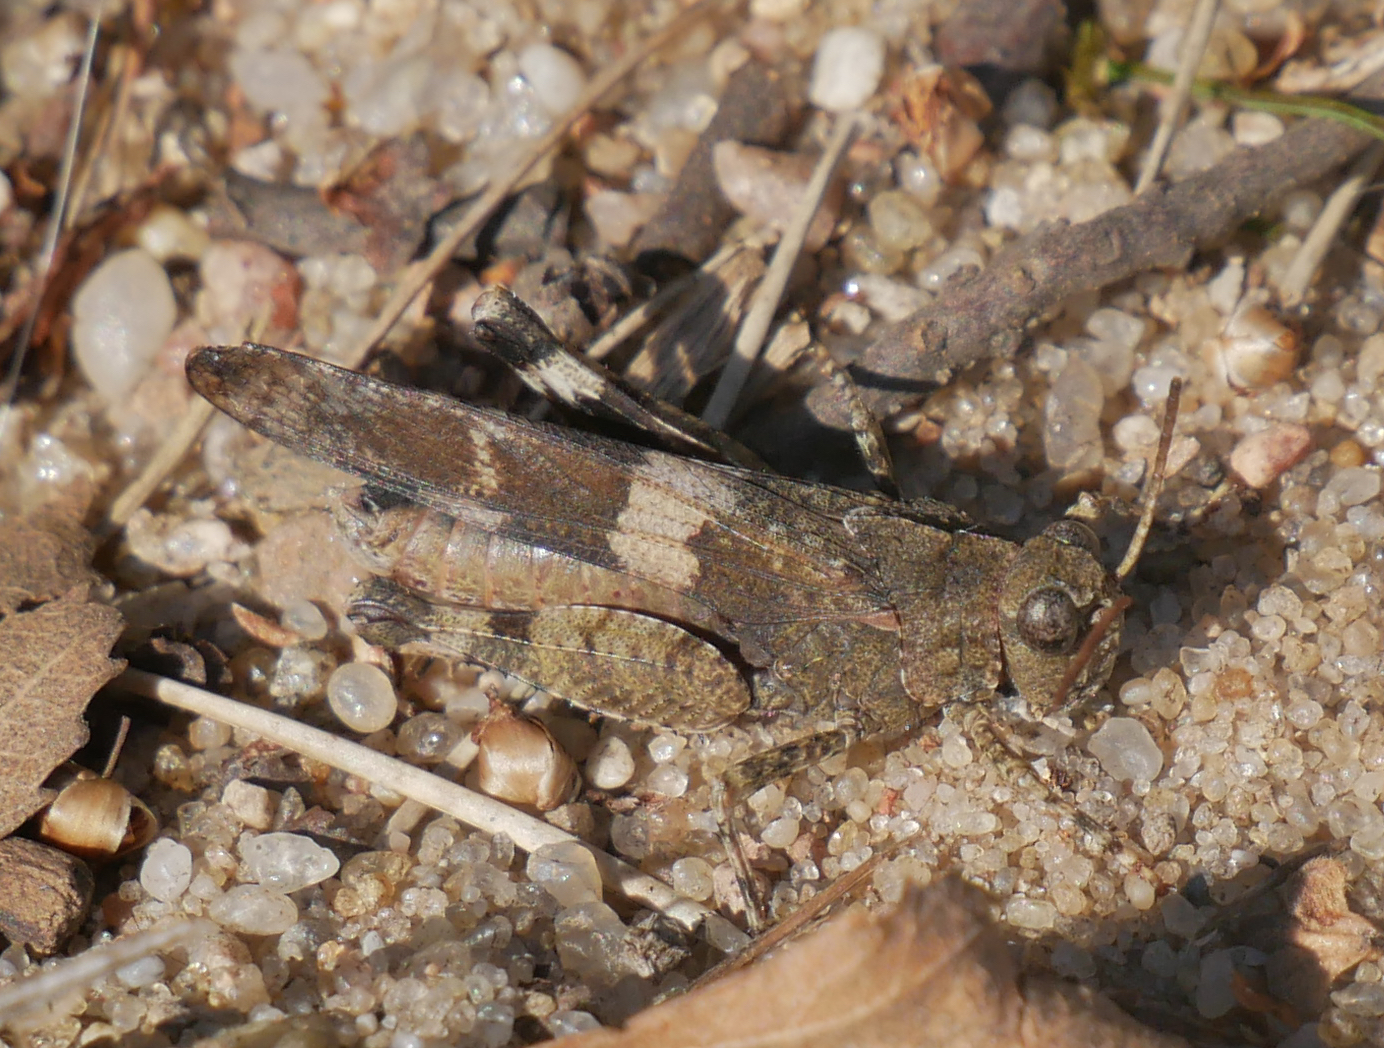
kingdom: Animalia
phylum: Arthropoda
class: Insecta
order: Orthoptera
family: Acrididae
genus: Oedipoda
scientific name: Oedipoda caerulescens
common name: Blue-winged grasshopper
